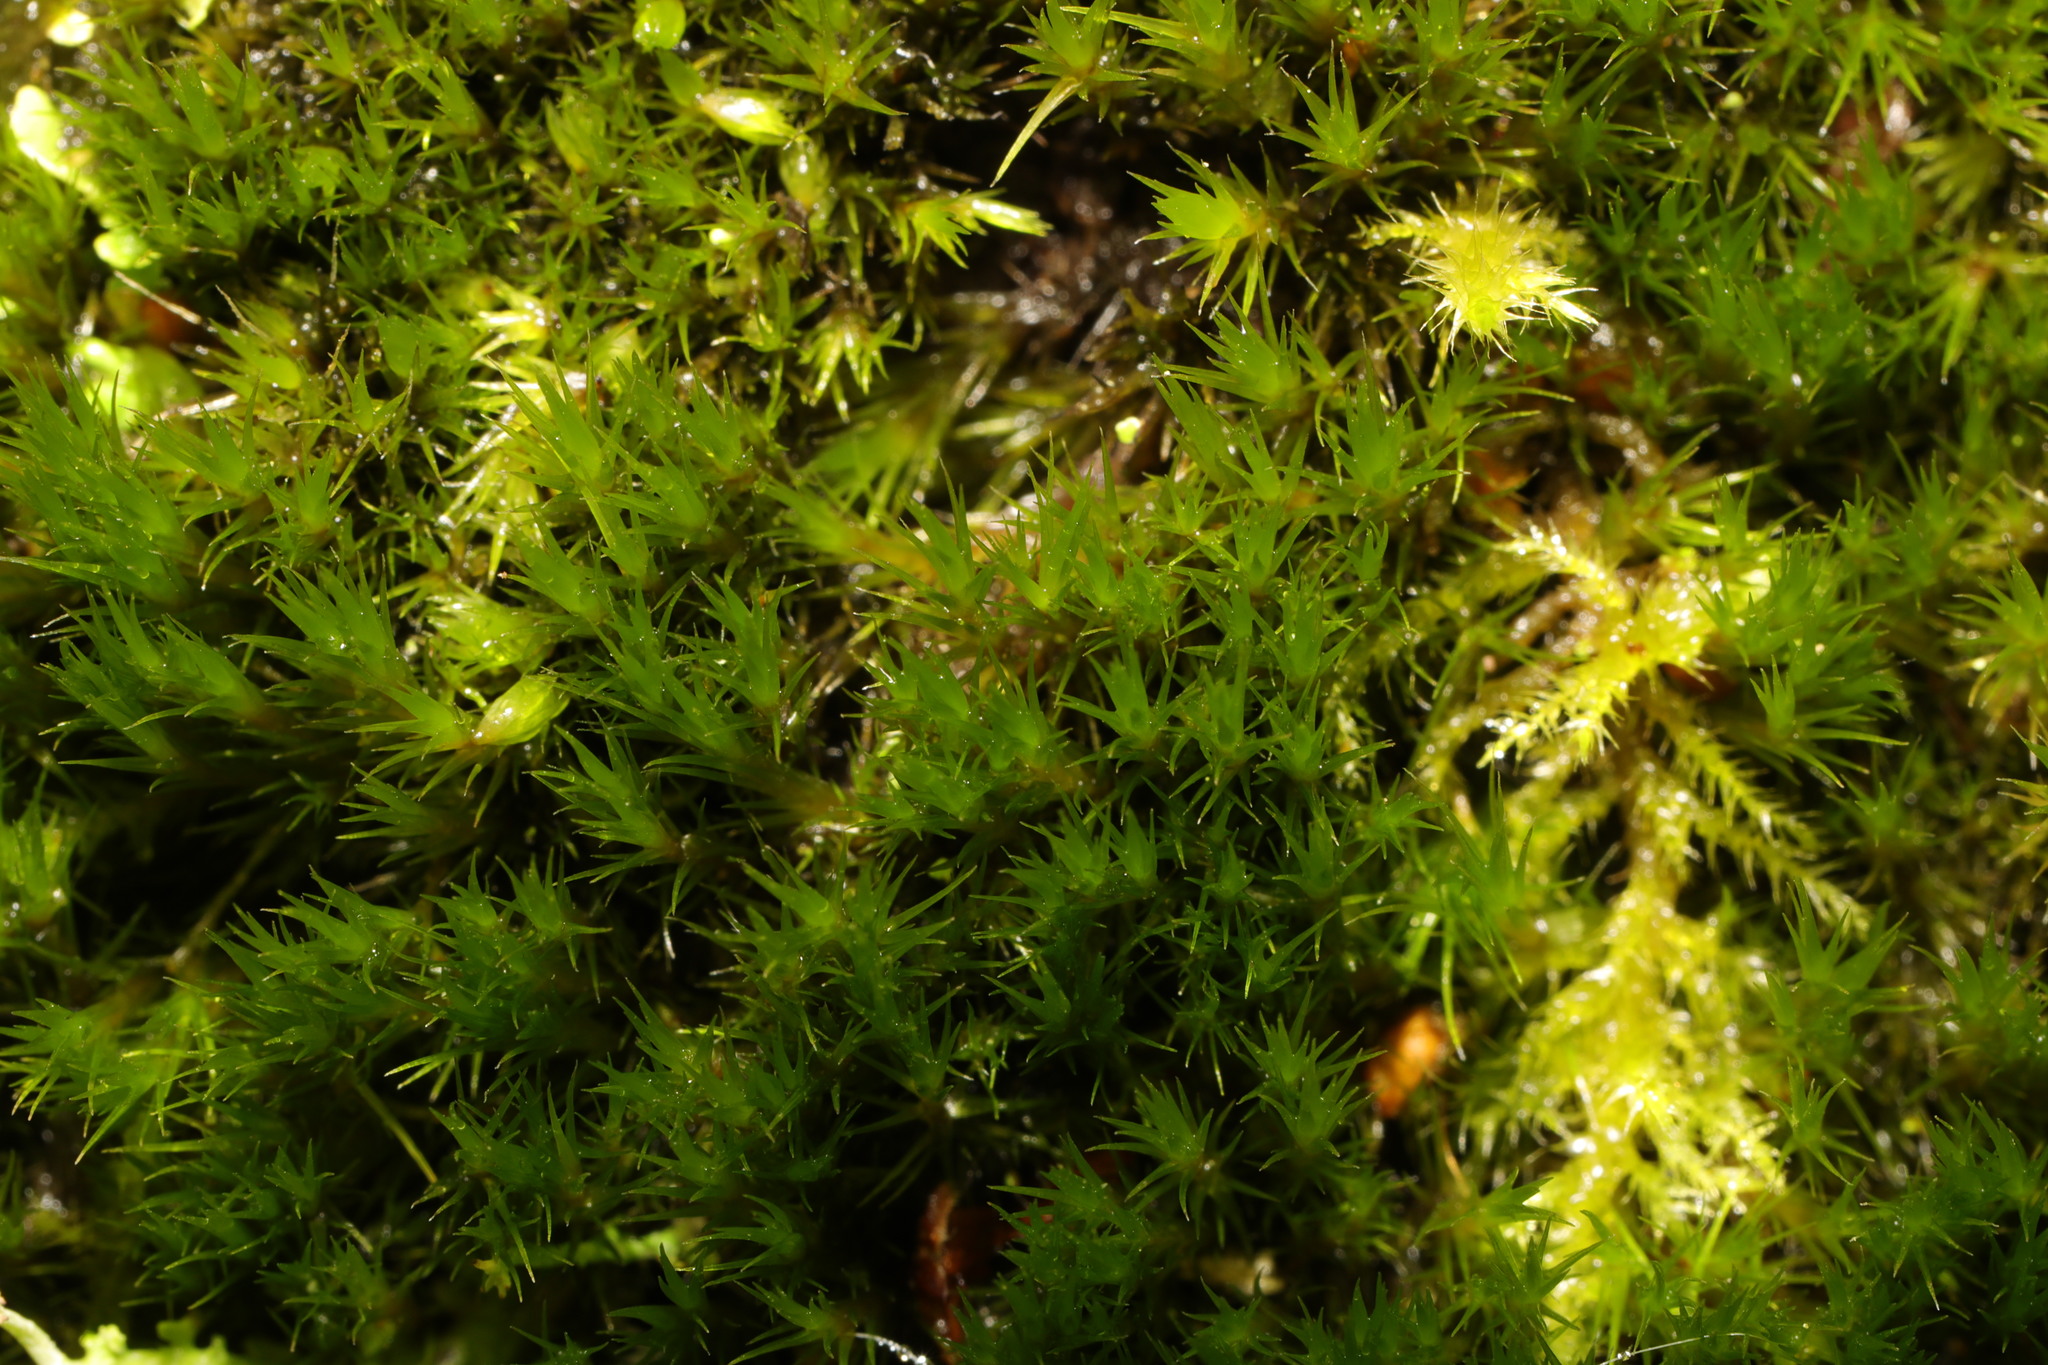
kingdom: Plantae
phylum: Bryophyta
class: Bryopsida
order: Grimmiales
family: Grimmiaceae
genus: Schistidium
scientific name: Schistidium crassipilum
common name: Thickpoint bloom moss
